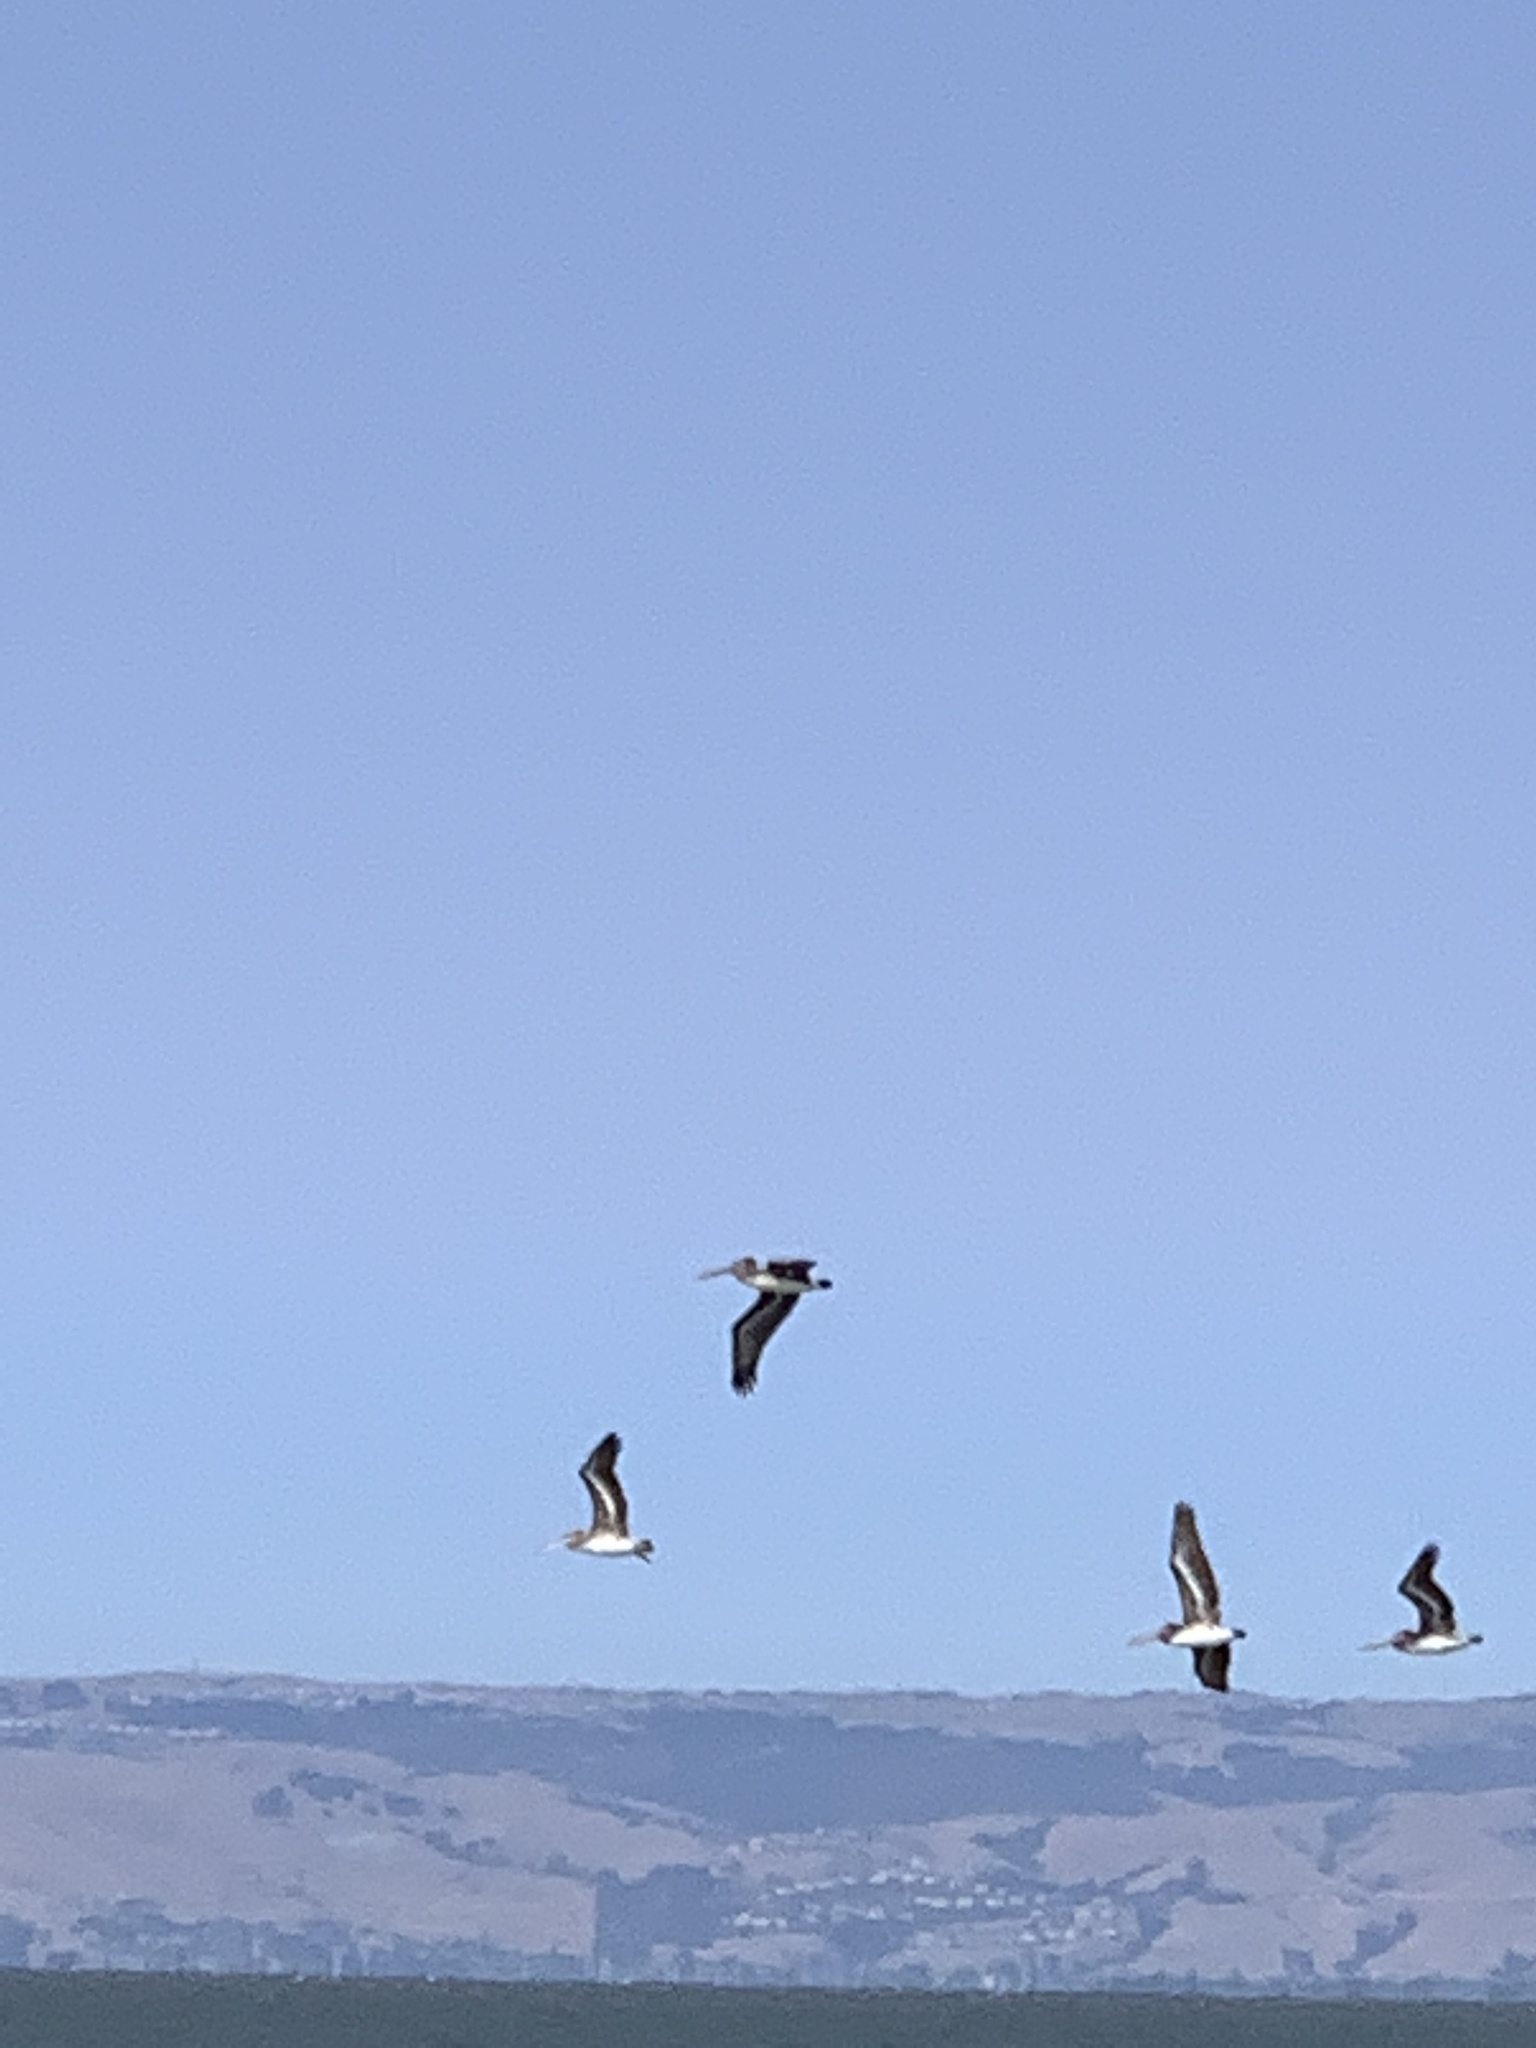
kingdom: Animalia
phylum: Chordata
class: Aves
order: Pelecaniformes
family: Pelecanidae
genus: Pelecanus
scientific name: Pelecanus occidentalis
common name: Brown pelican
